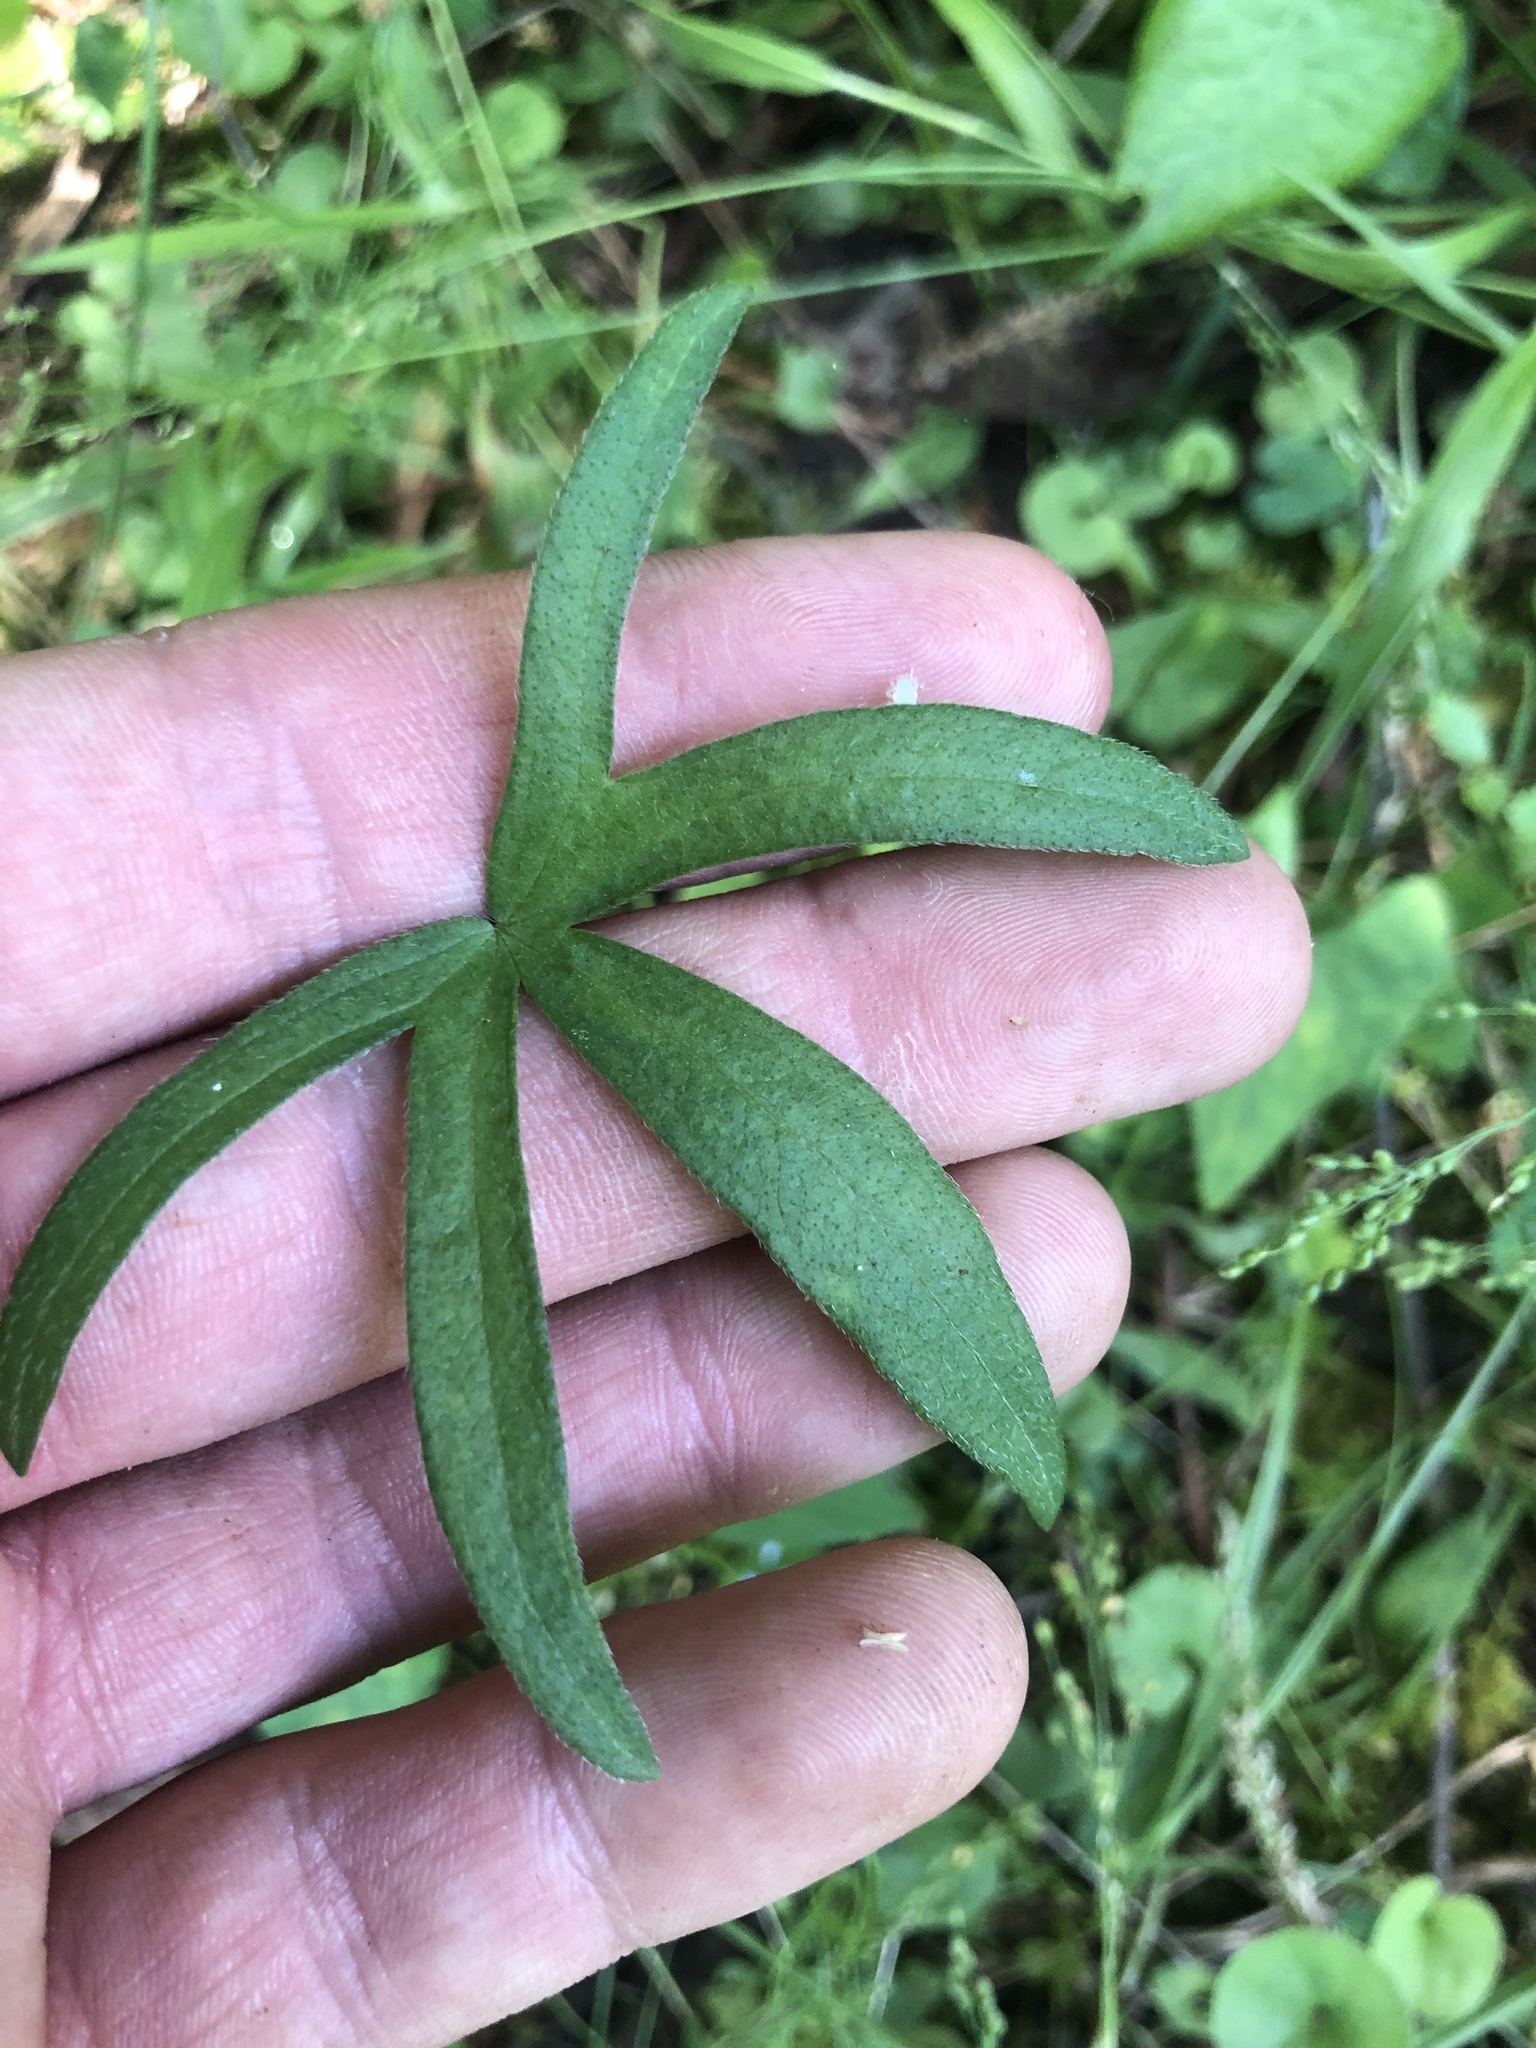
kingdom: Plantae
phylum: Tracheophyta
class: Magnoliopsida
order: Malvales
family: Malvaceae
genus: Callirhoe
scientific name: Callirhoe papaver
